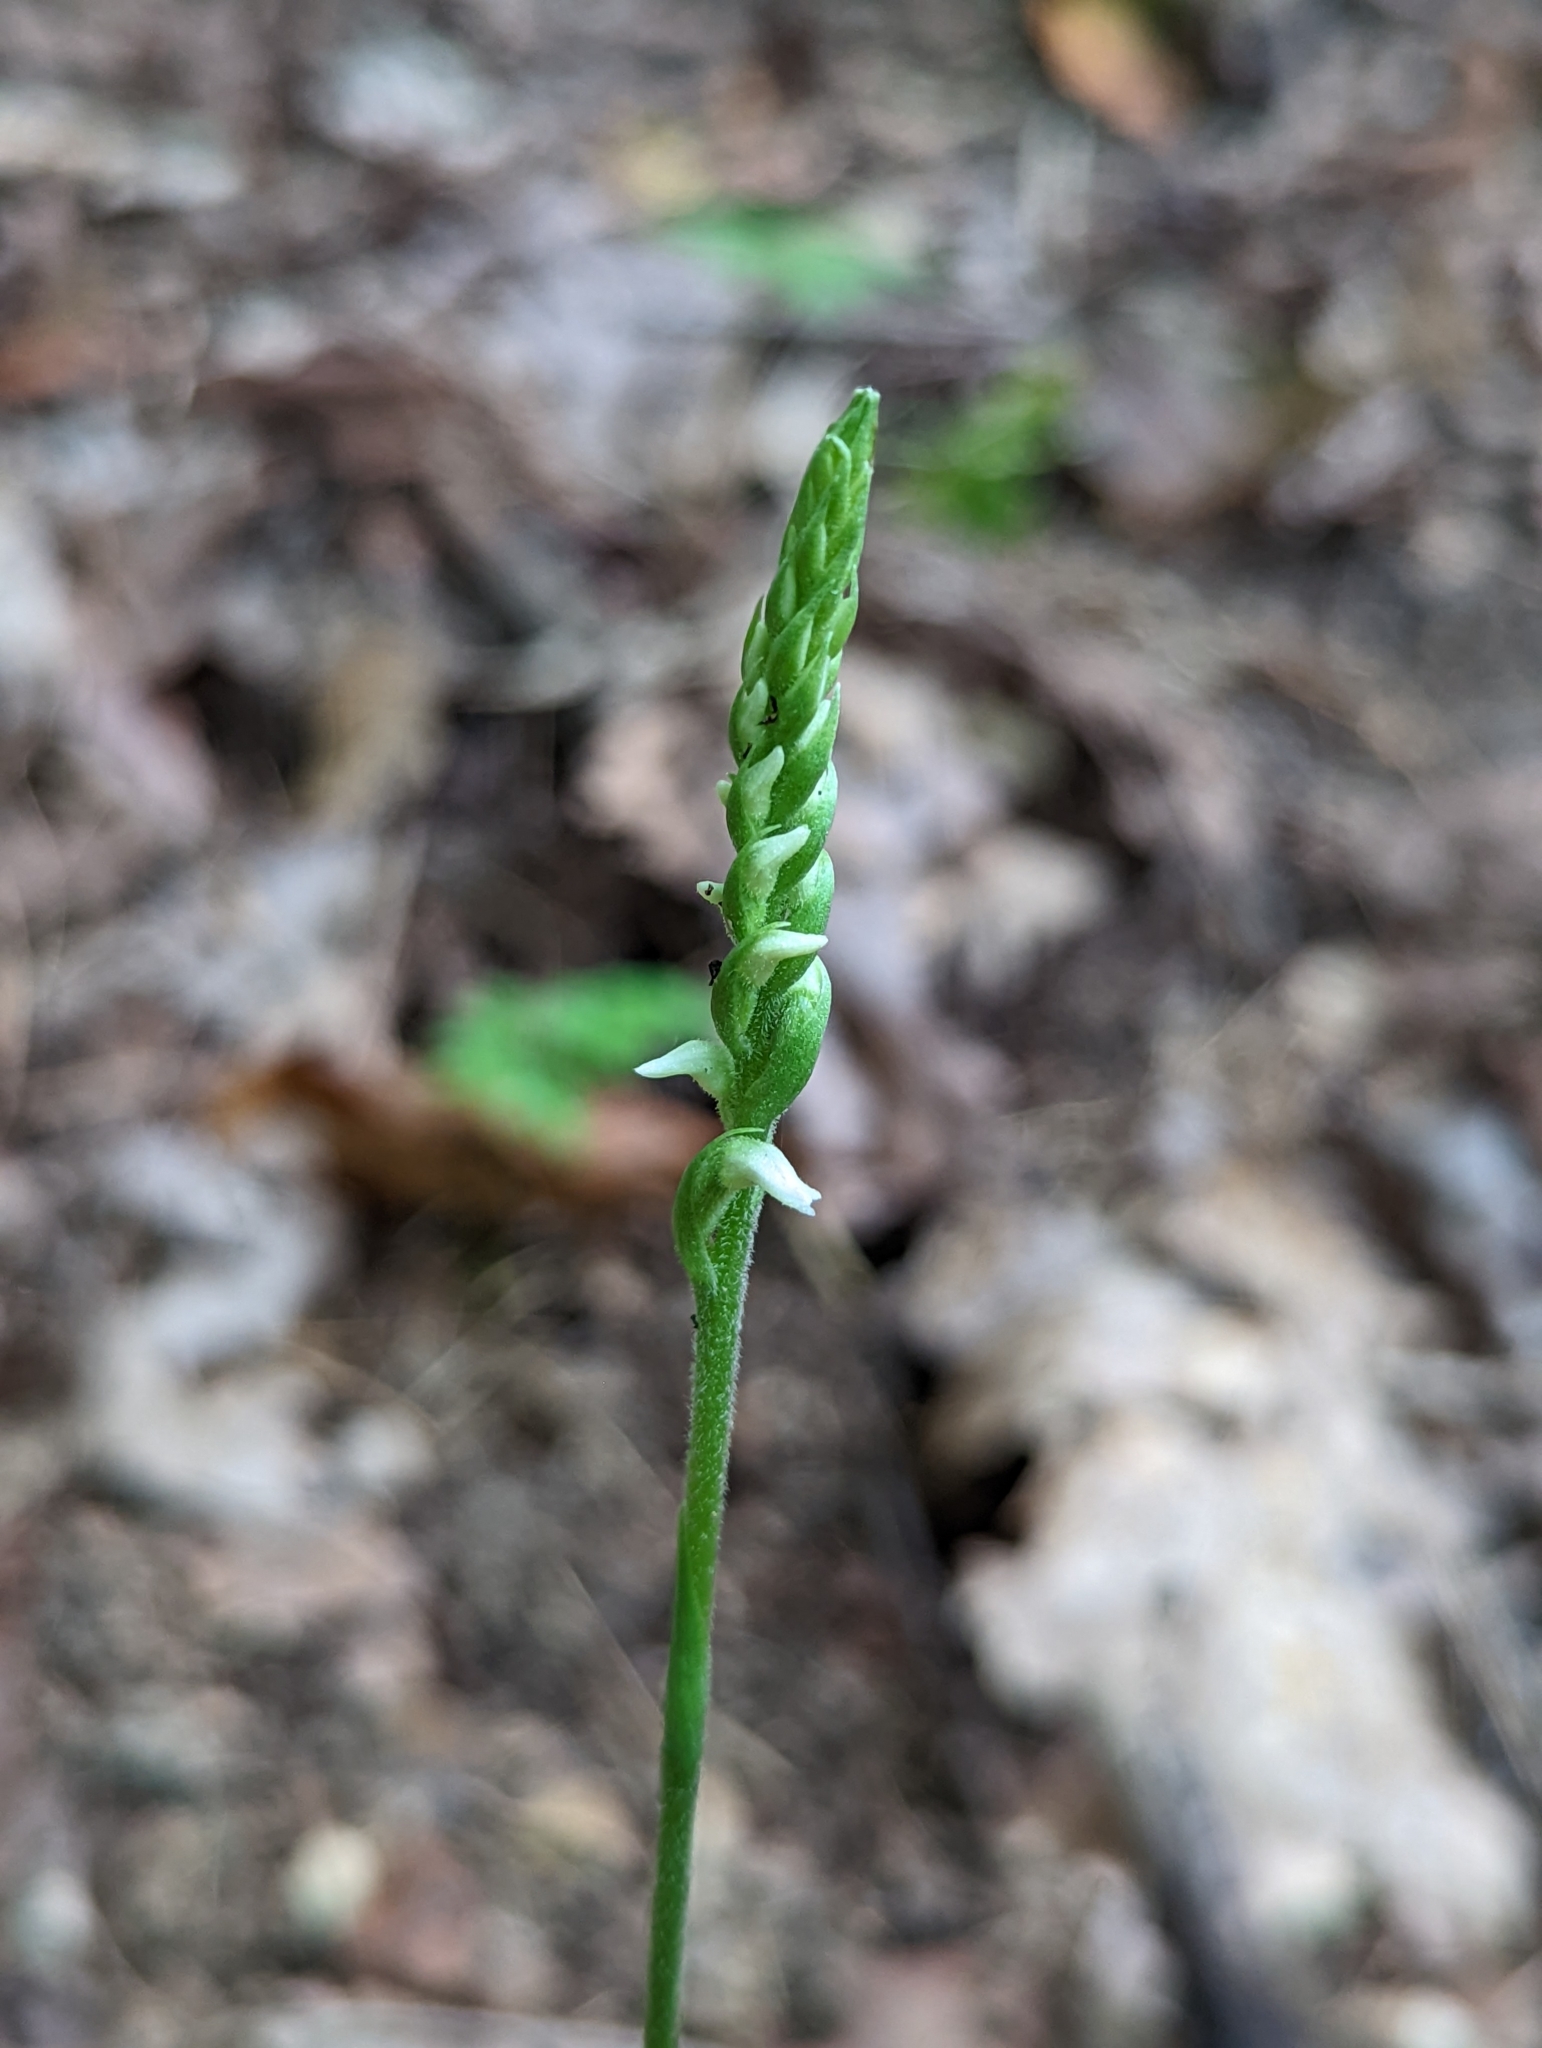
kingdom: Plantae
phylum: Tracheophyta
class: Liliopsida
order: Asparagales
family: Orchidaceae
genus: Spiranthes
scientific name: Spiranthes ovalis
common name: October ladies'-tresses
